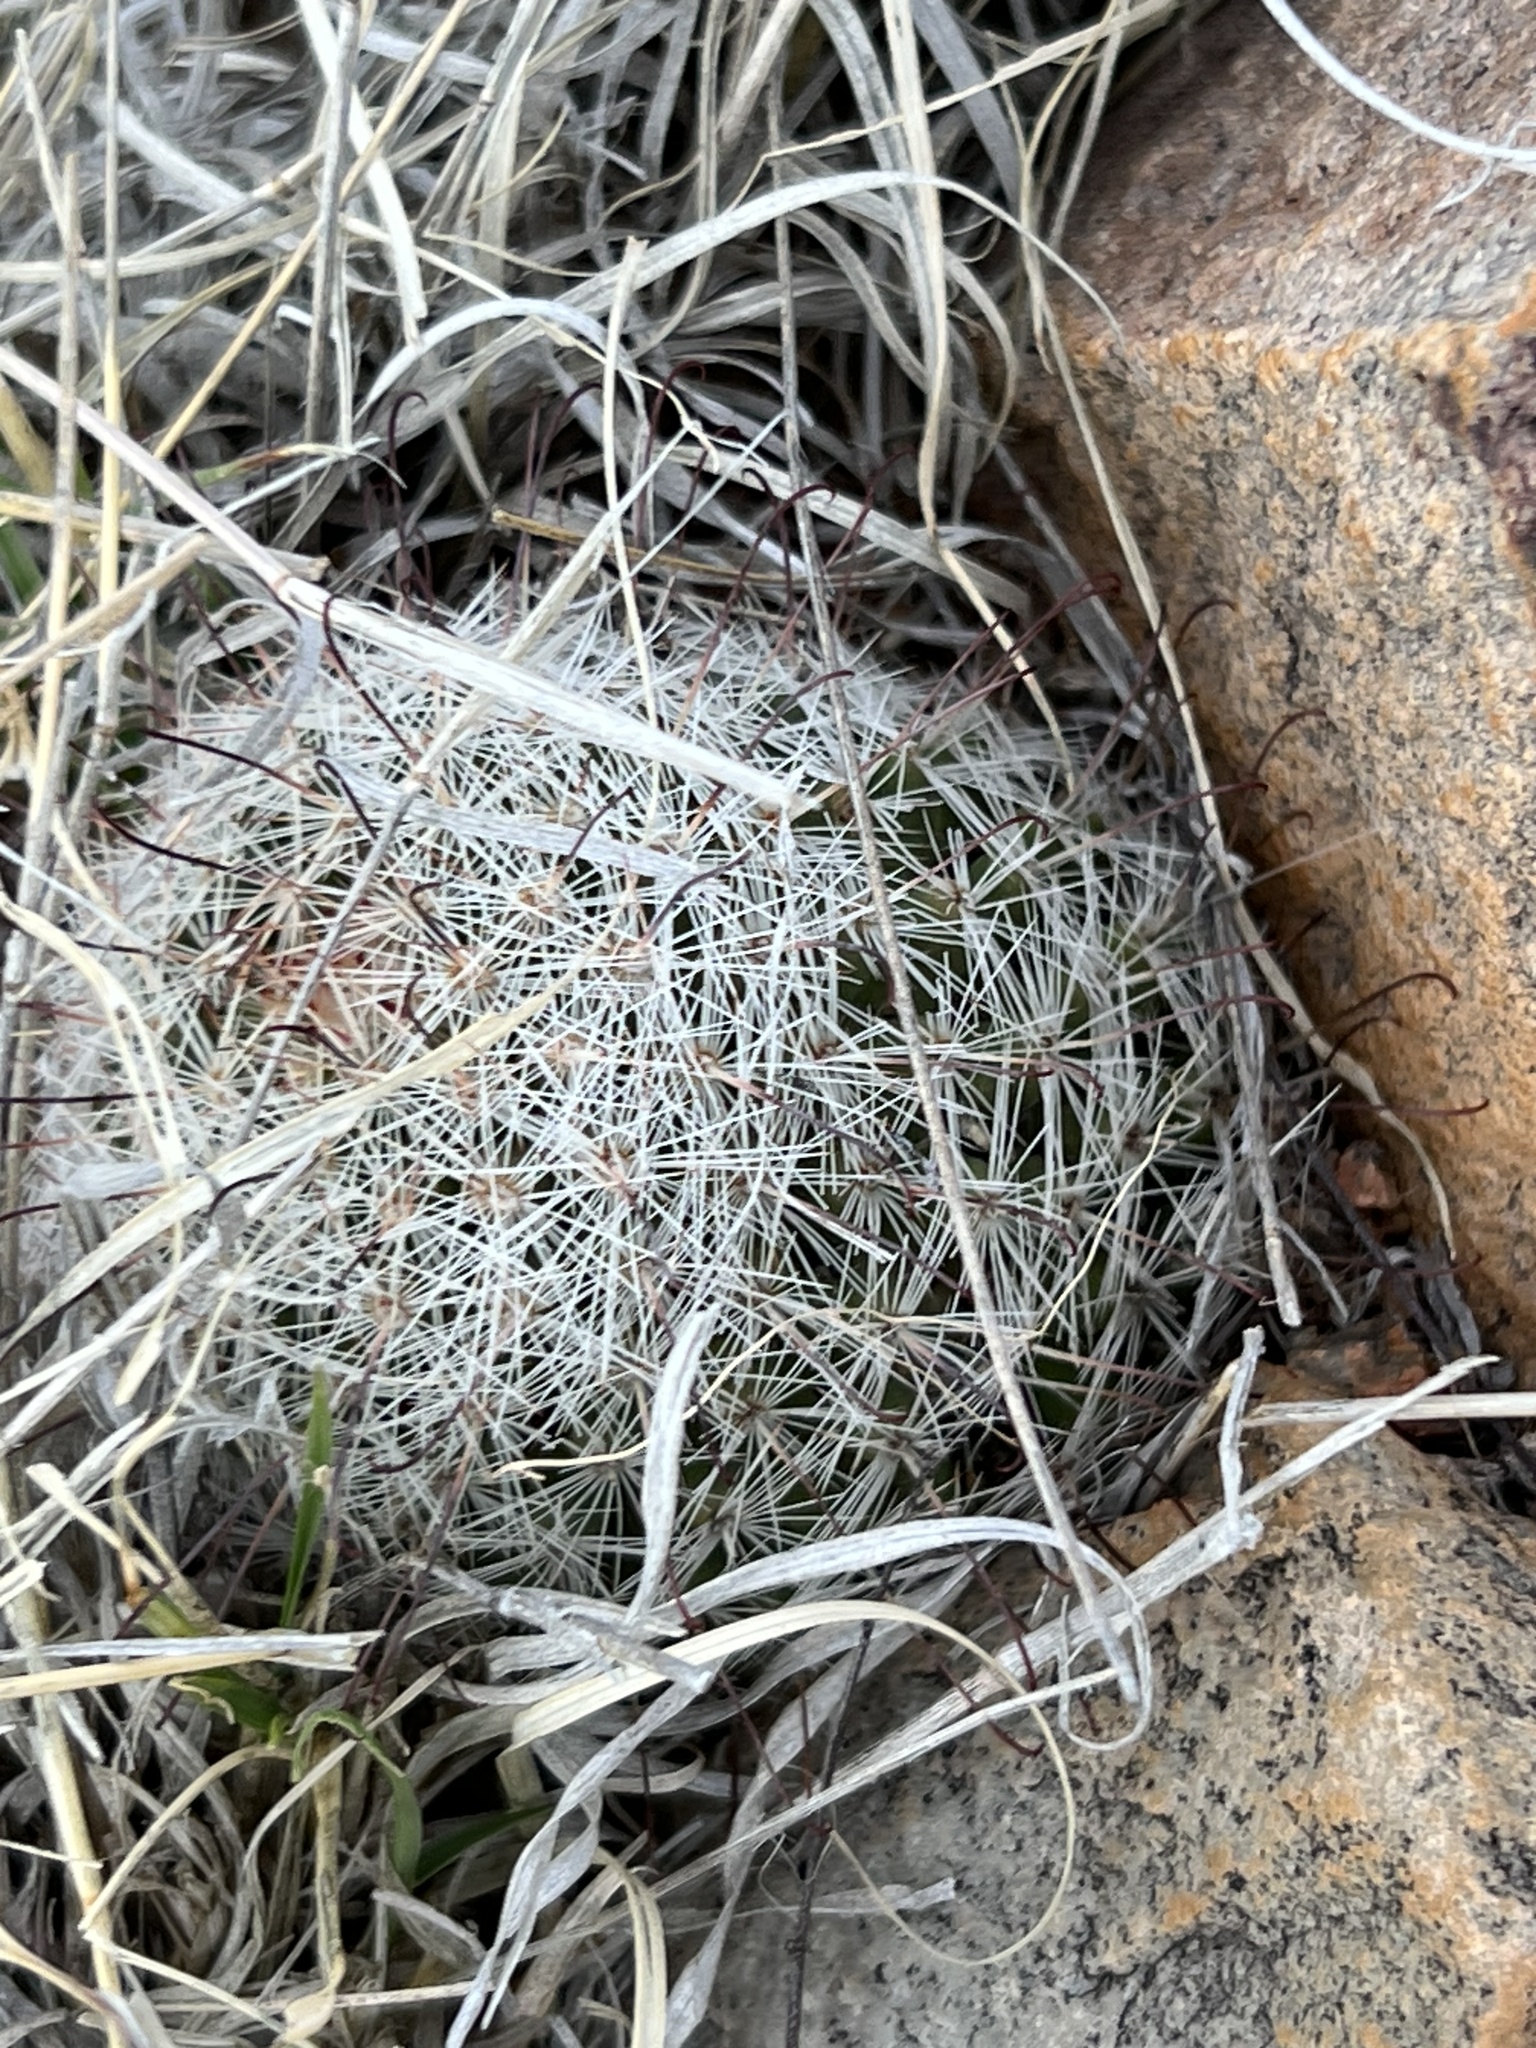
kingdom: Plantae
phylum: Tracheophyta
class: Magnoliopsida
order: Caryophyllales
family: Cactaceae
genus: Cochemiea
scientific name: Cochemiea grahamii
